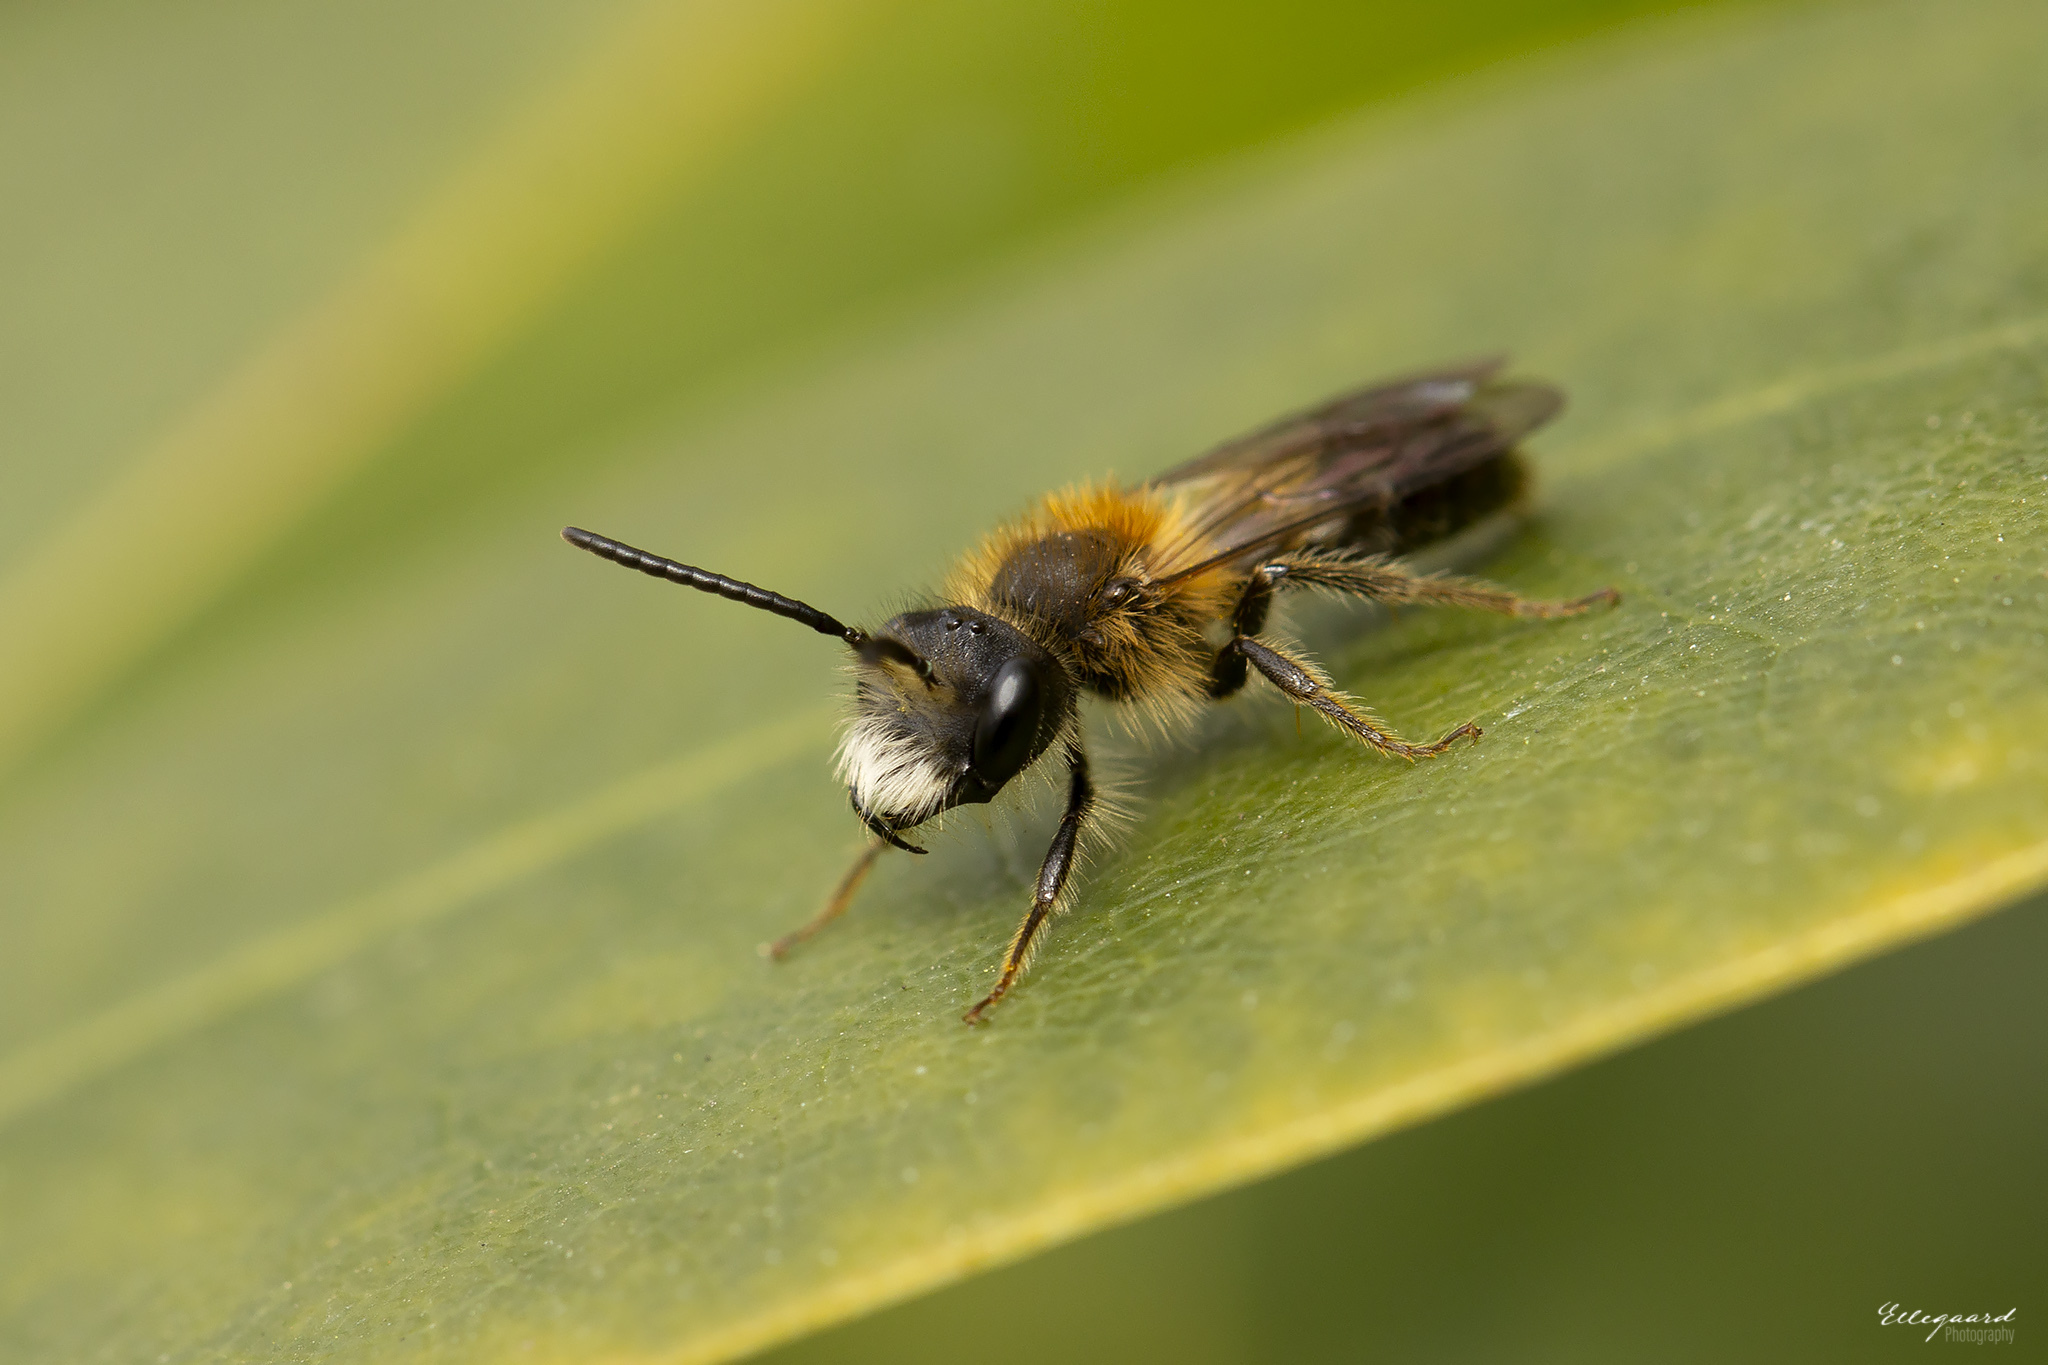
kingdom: Animalia
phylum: Arthropoda
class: Insecta
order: Hymenoptera
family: Andrenidae
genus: Andrena
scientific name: Andrena helvola
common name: Coppice mining bee
